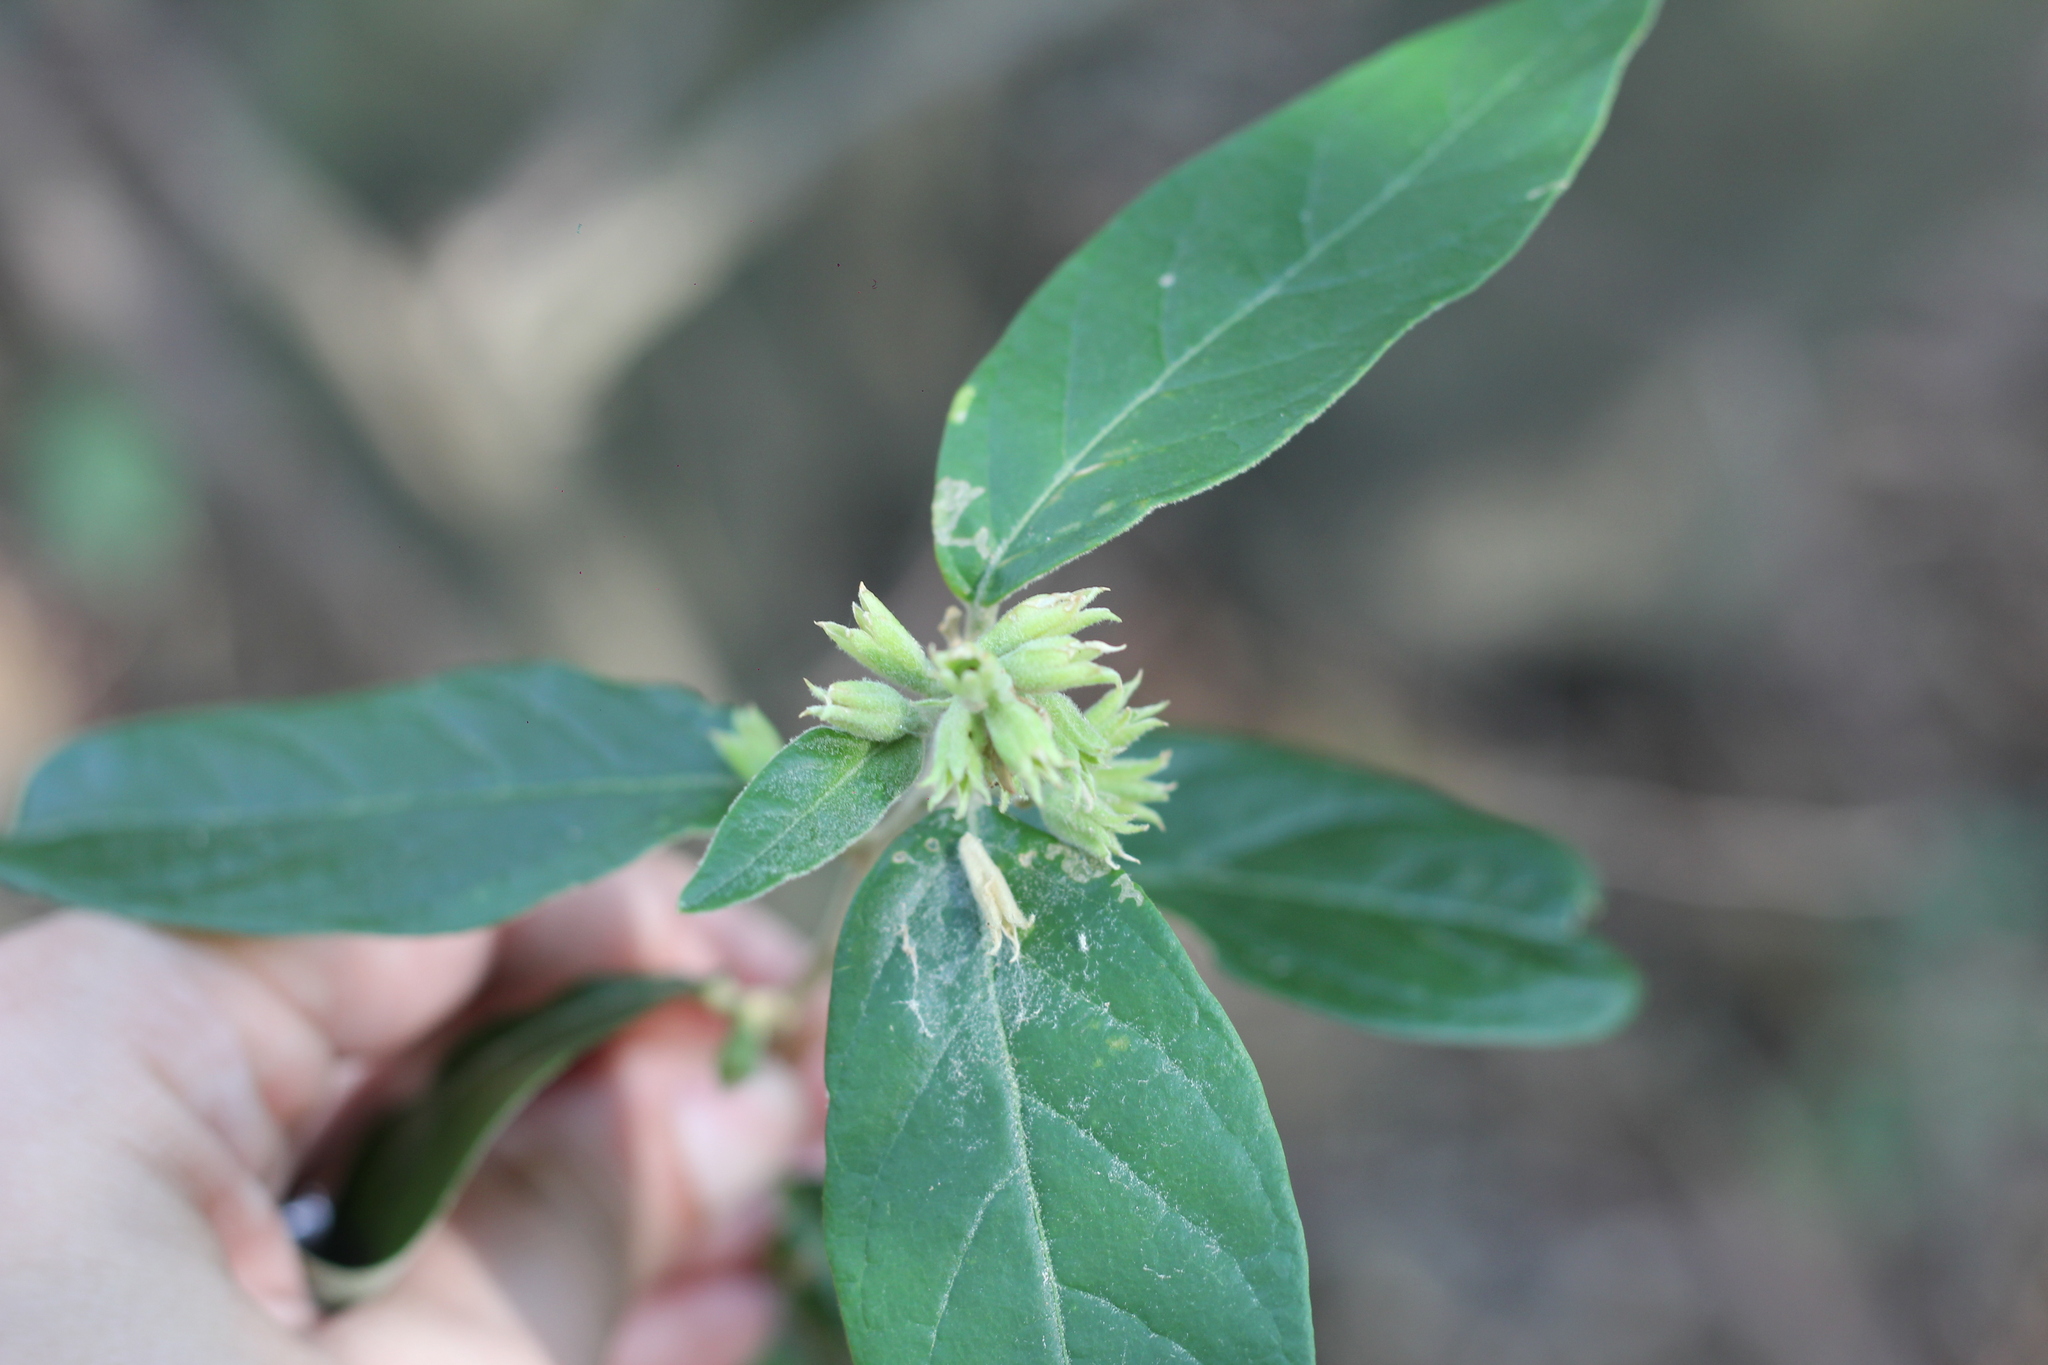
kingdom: Plantae
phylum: Tracheophyta
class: Magnoliopsida
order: Solanales
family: Solanaceae
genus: Cestrum
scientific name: Cestrum strigillatum
